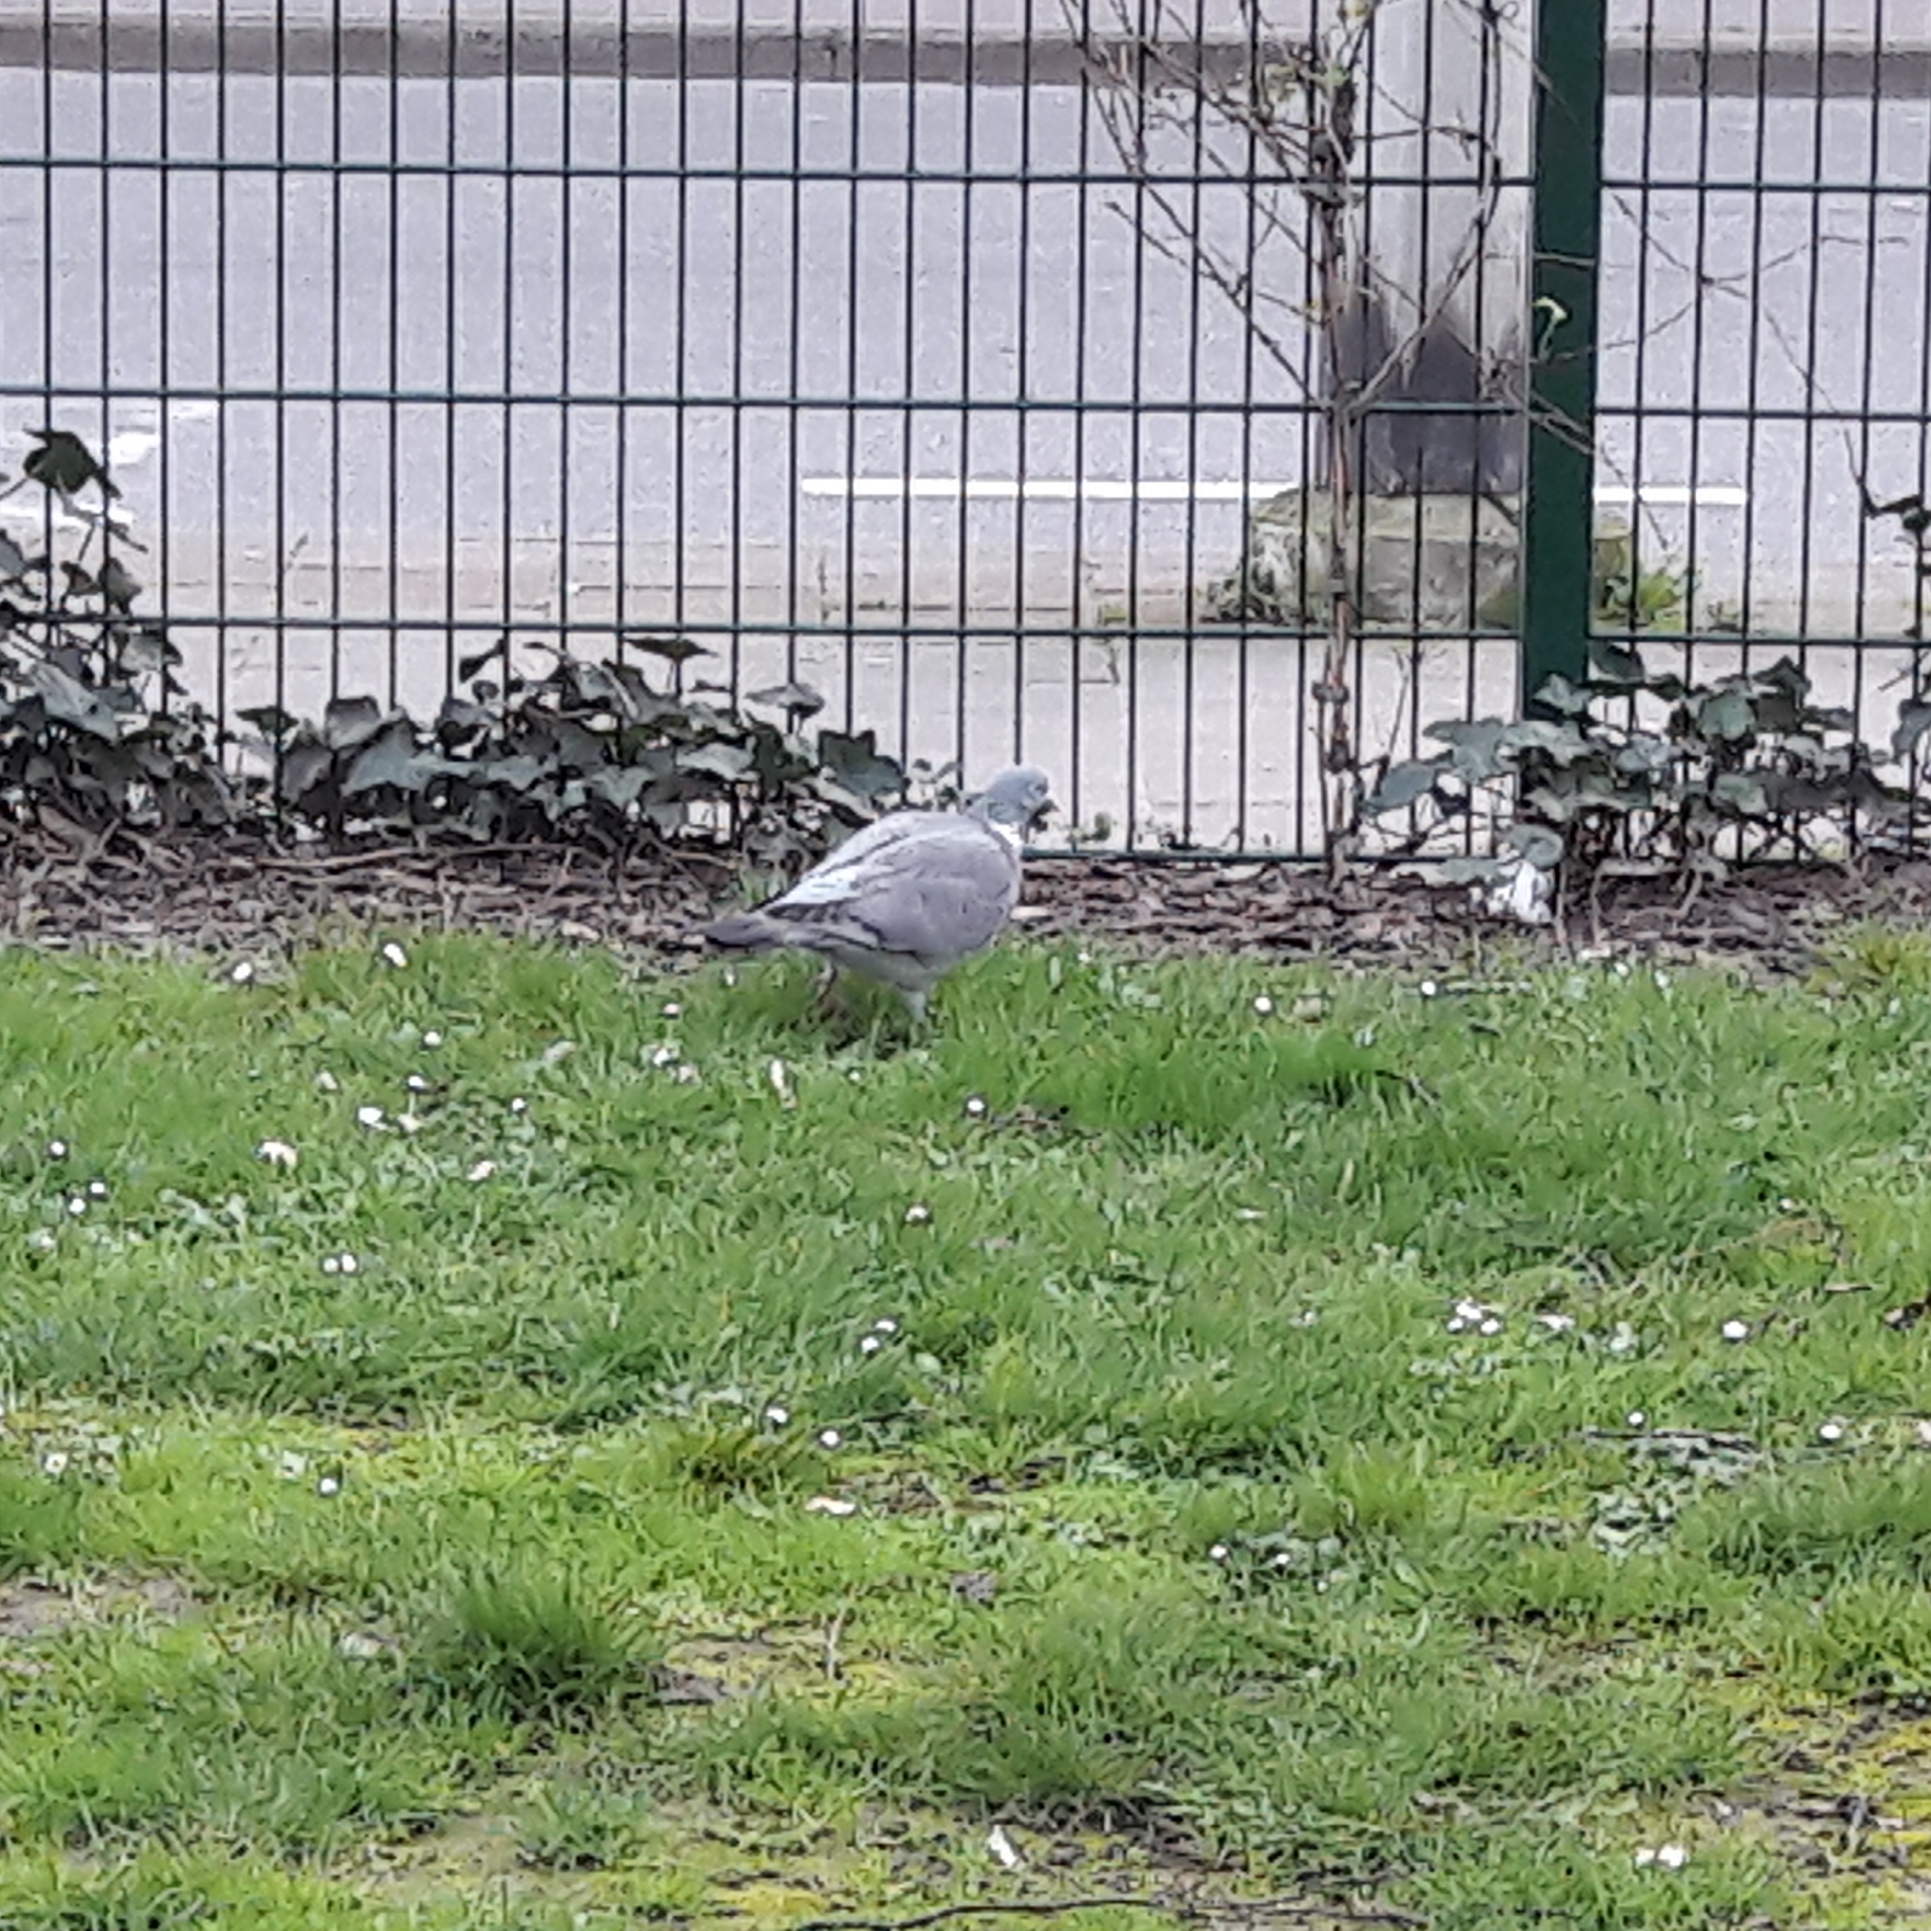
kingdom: Animalia
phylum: Chordata
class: Aves
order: Columbiformes
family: Columbidae
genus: Columba
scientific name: Columba palumbus
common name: Common wood pigeon
